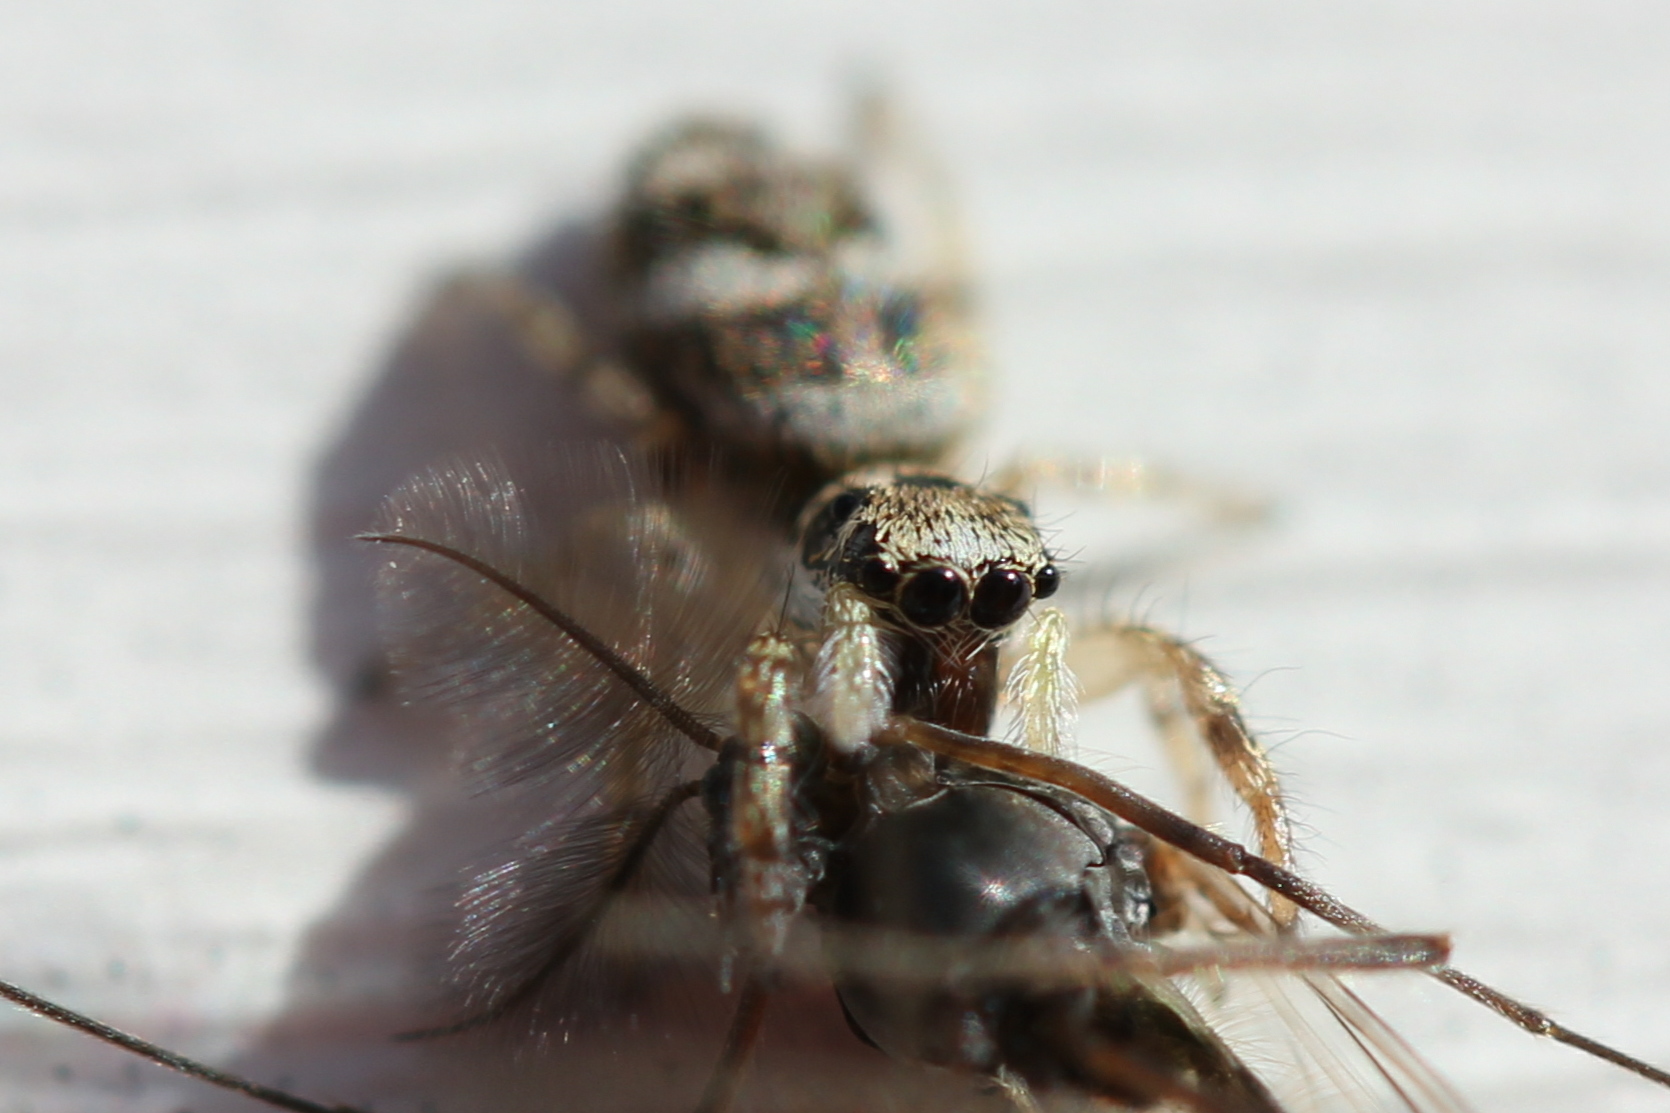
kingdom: Animalia
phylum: Arthropoda
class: Arachnida
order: Araneae
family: Salticidae
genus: Salticus
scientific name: Salticus scenicus
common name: Zebra jumper
